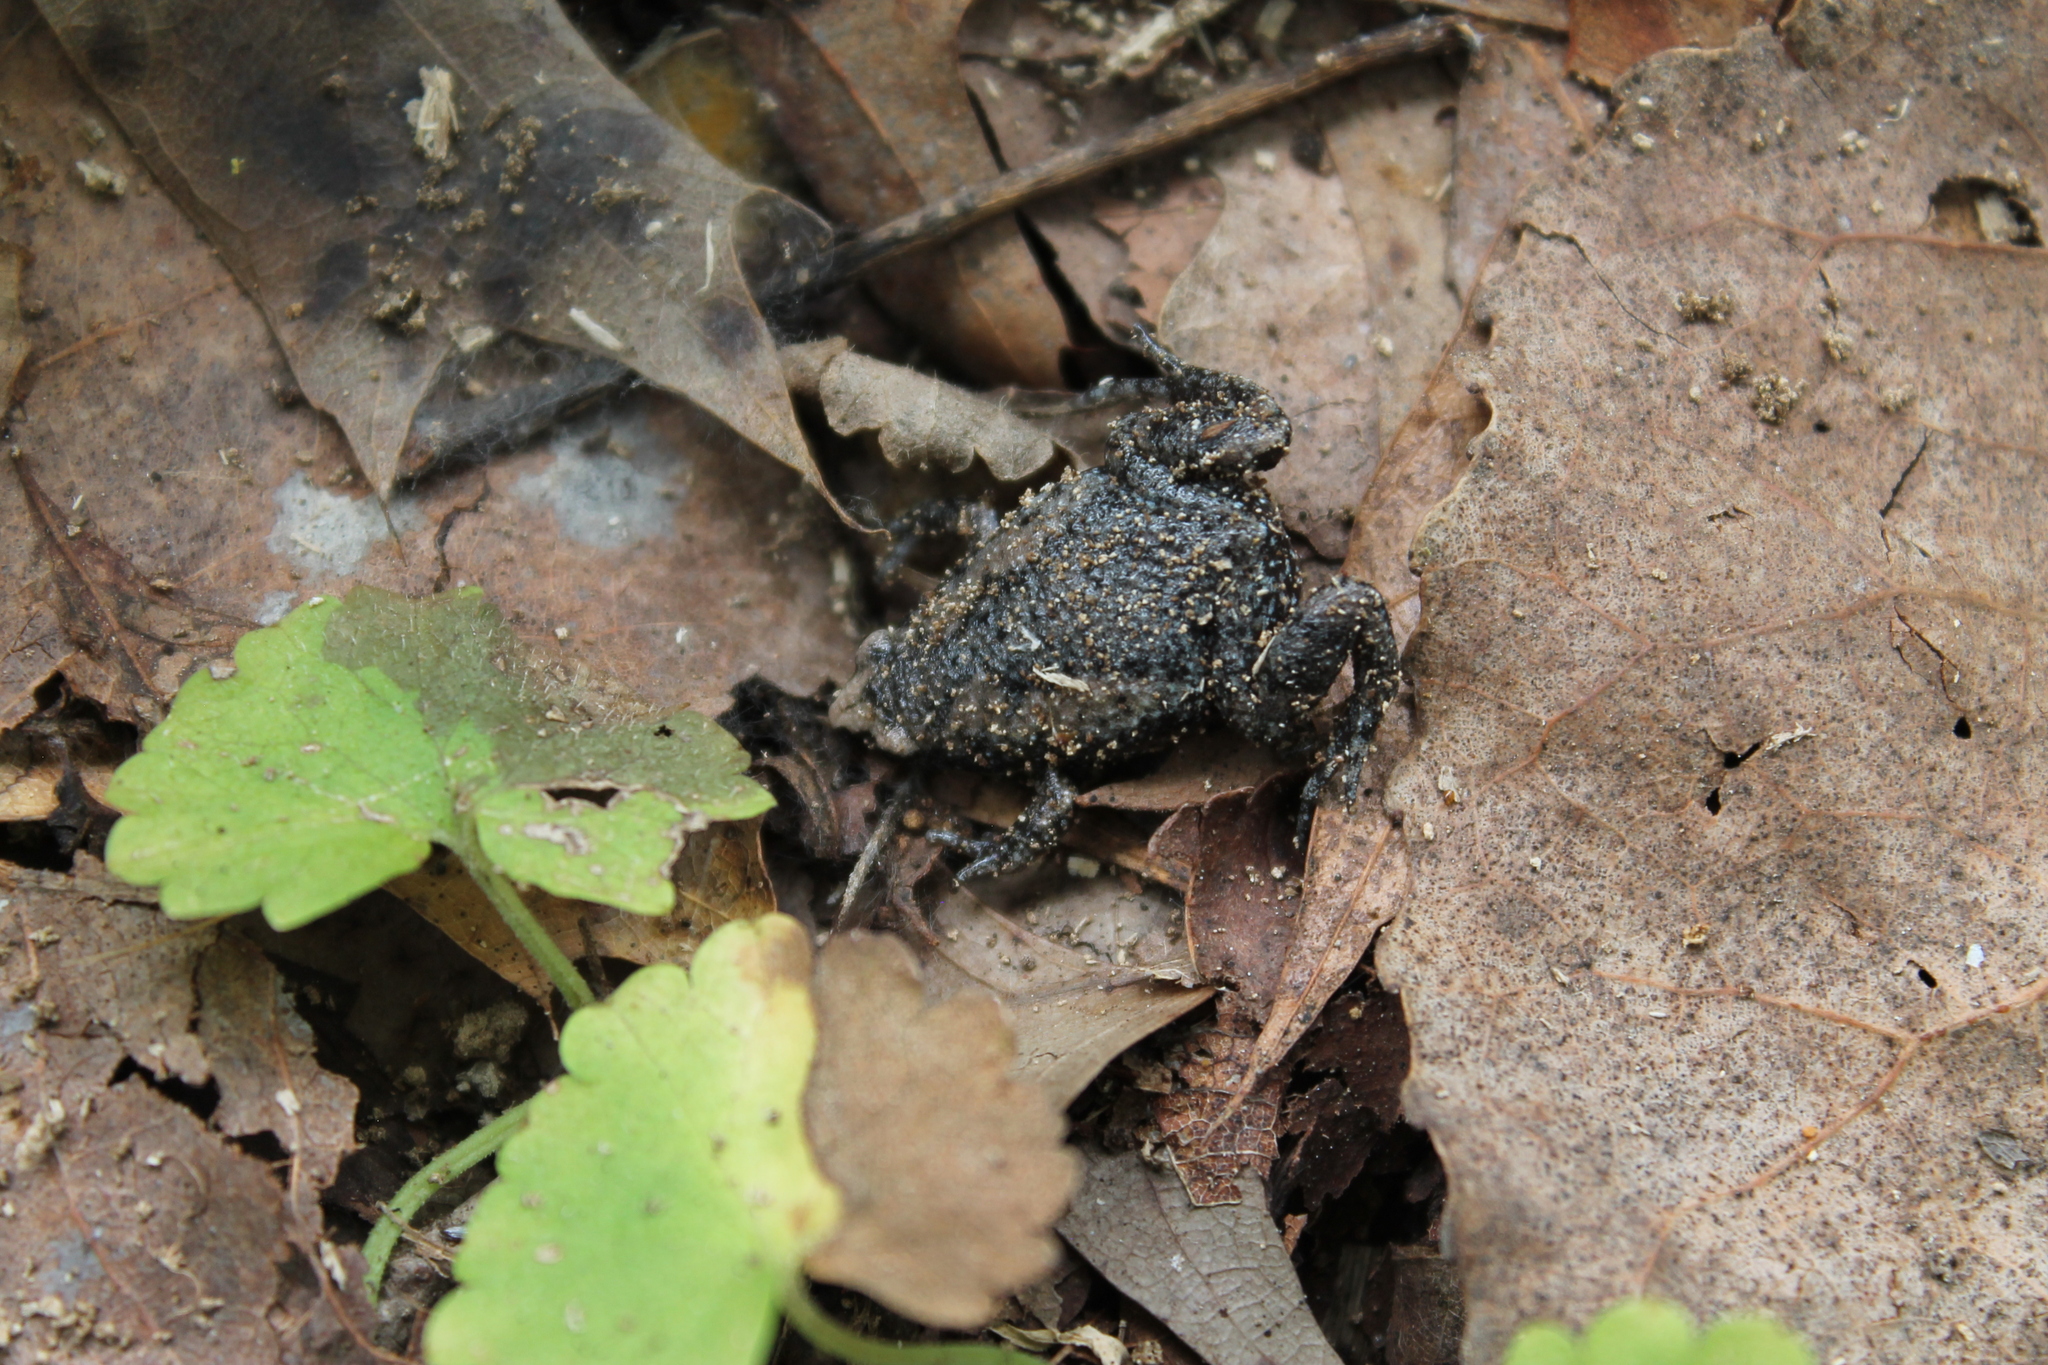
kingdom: Animalia
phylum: Chordata
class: Amphibia
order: Anura
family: Microhylidae
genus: Gastrophryne
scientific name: Gastrophryne carolinensis
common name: Eastern narrowmouth toad
